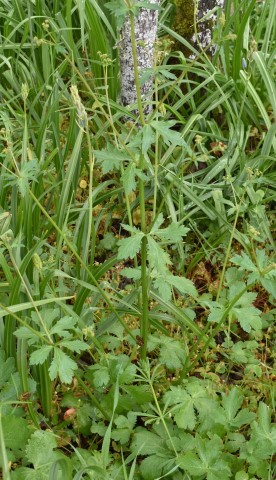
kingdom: Plantae
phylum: Tracheophyta
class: Magnoliopsida
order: Apiales
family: Apiaceae
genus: Sanicula
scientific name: Sanicula crassicaulis
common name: Western snakeroot
